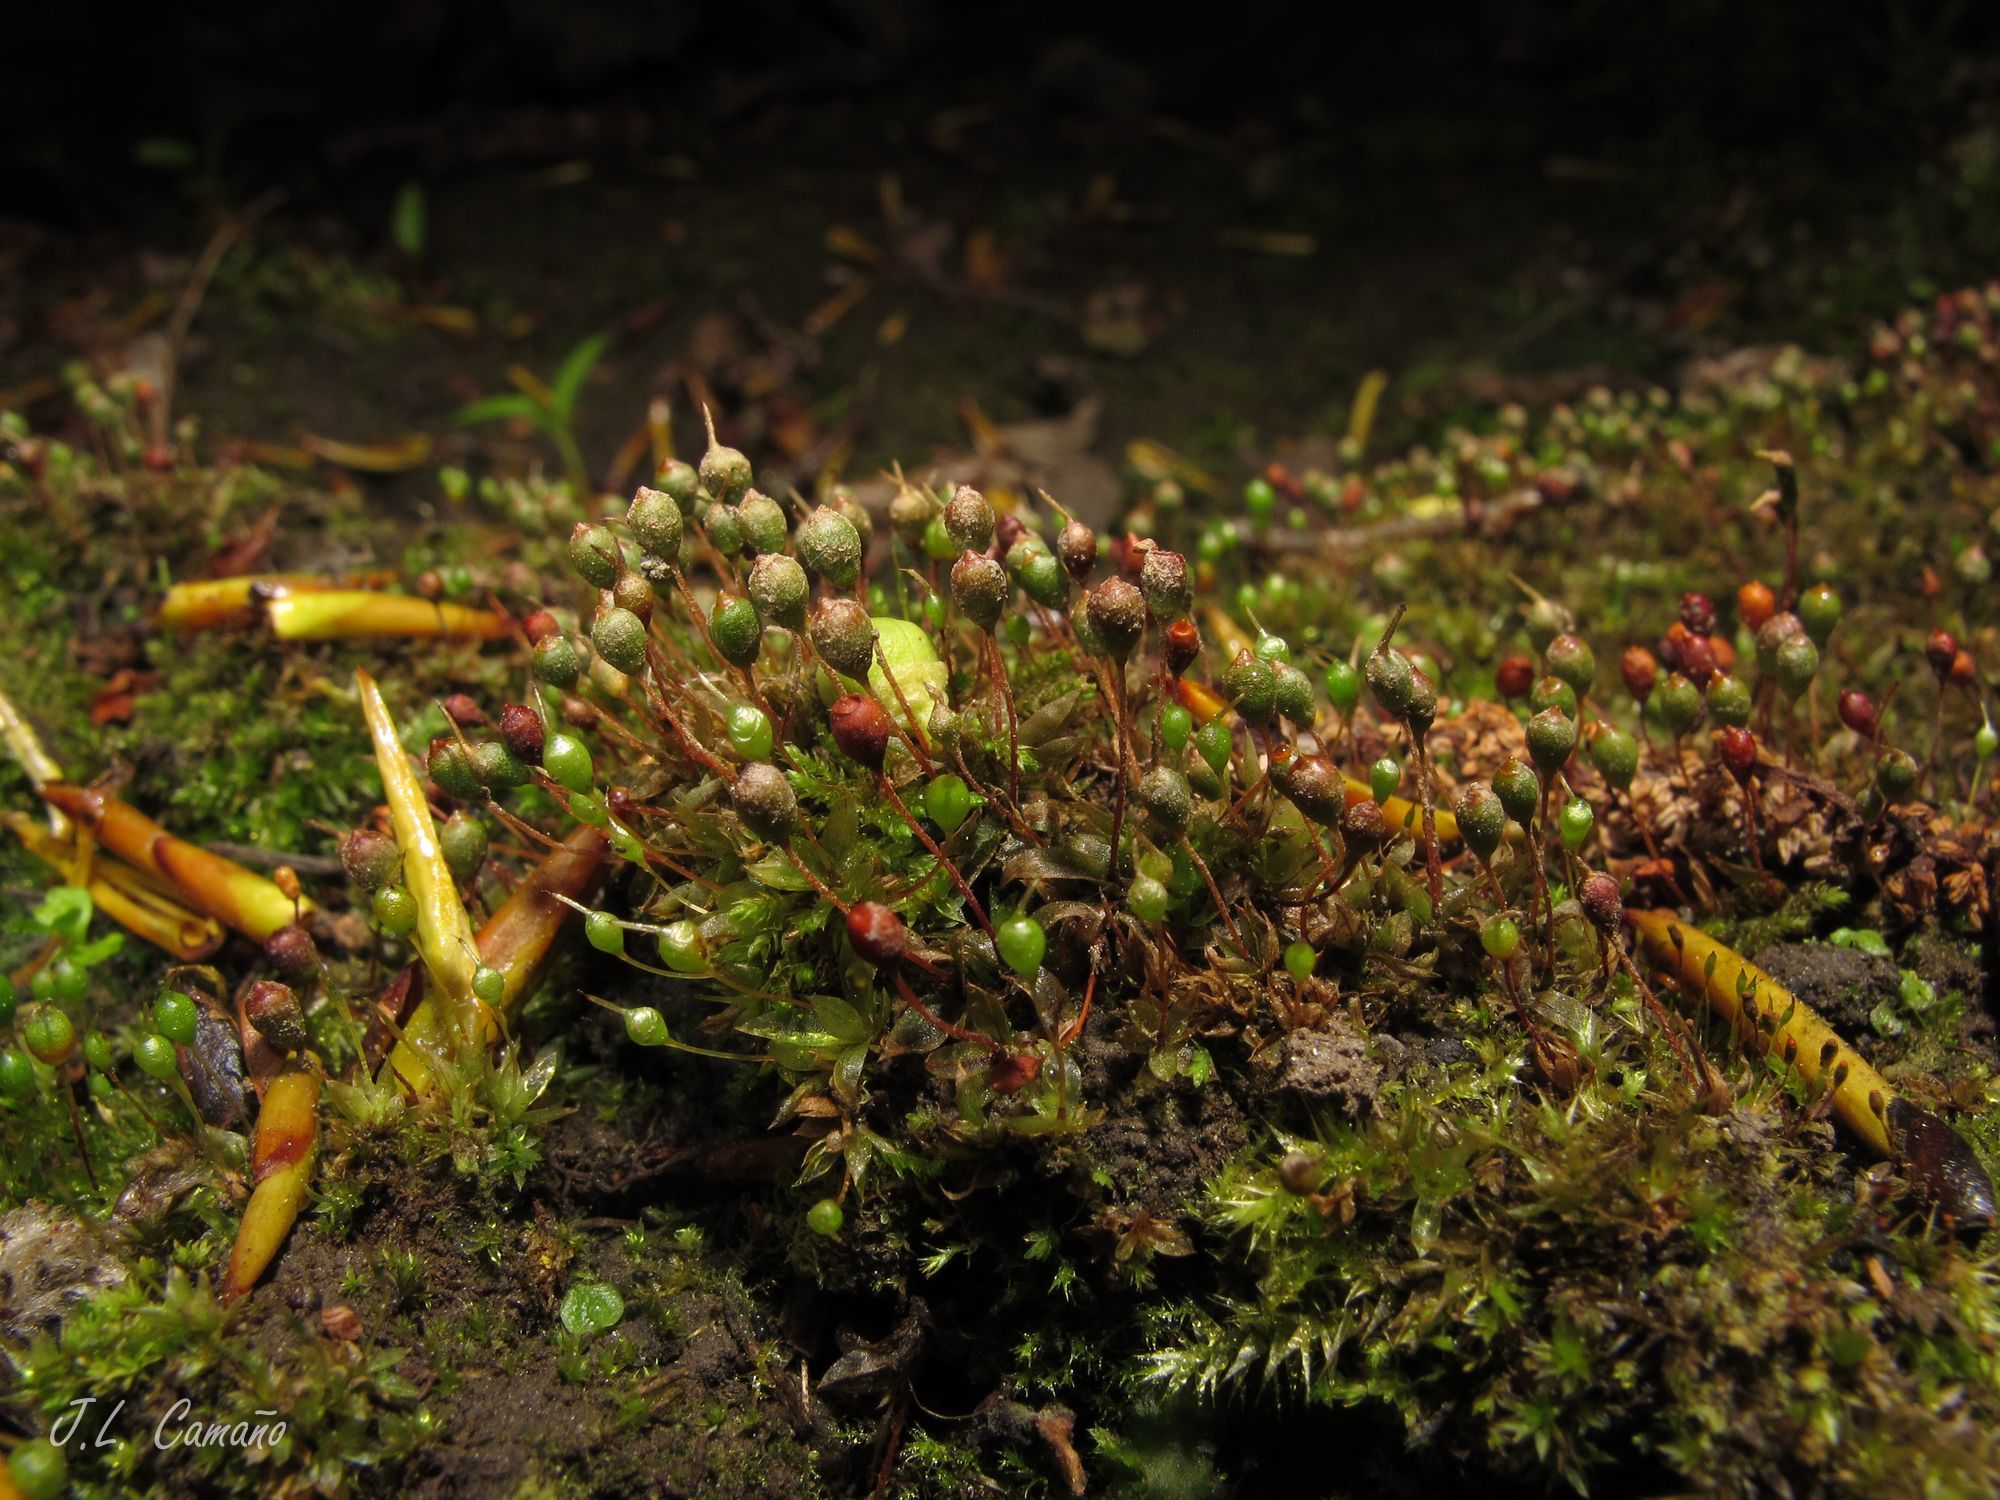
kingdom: Plantae
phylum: Bryophyta
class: Bryopsida
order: Funariales
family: Funariaceae
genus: Physcomitrium
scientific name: Physcomitrium pyriforme
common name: Common bladder-moss
